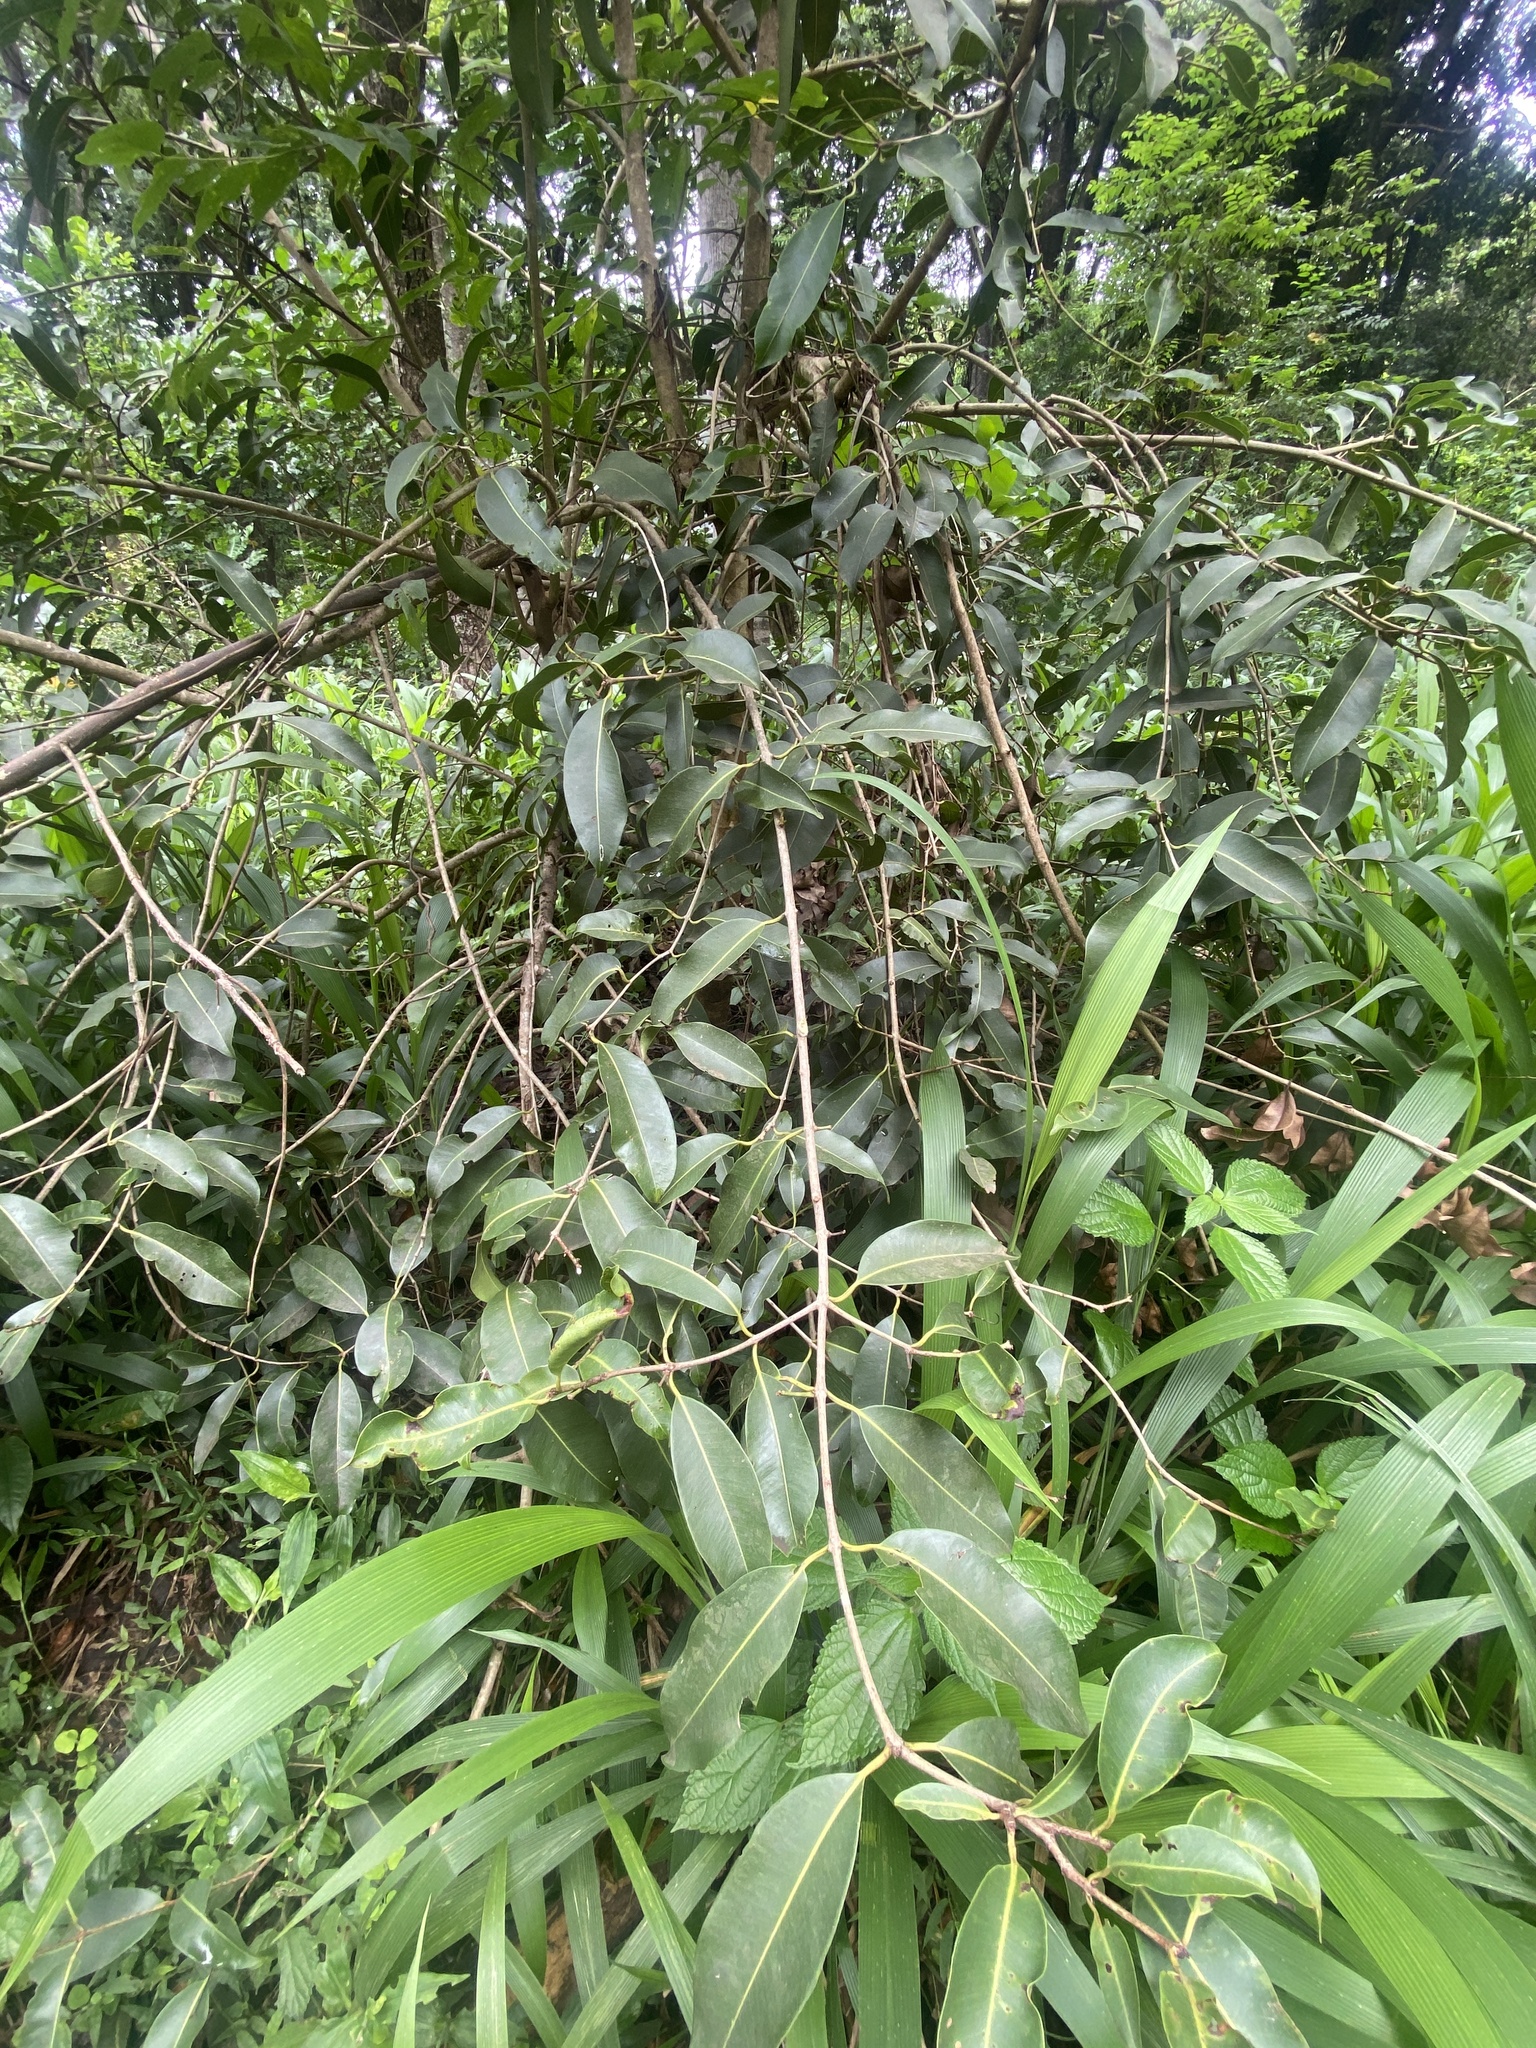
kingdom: Plantae
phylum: Tracheophyta
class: Magnoliopsida
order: Myrtales
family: Myrtaceae
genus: Syzygium
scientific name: Syzygium cumini
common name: Java plum
